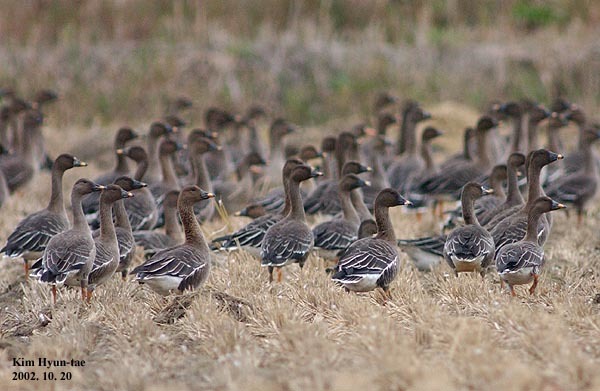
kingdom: Animalia
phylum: Chordata
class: Aves
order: Anseriformes
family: Anatidae
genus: Anser
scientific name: Anser fabalis
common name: Bean goose
